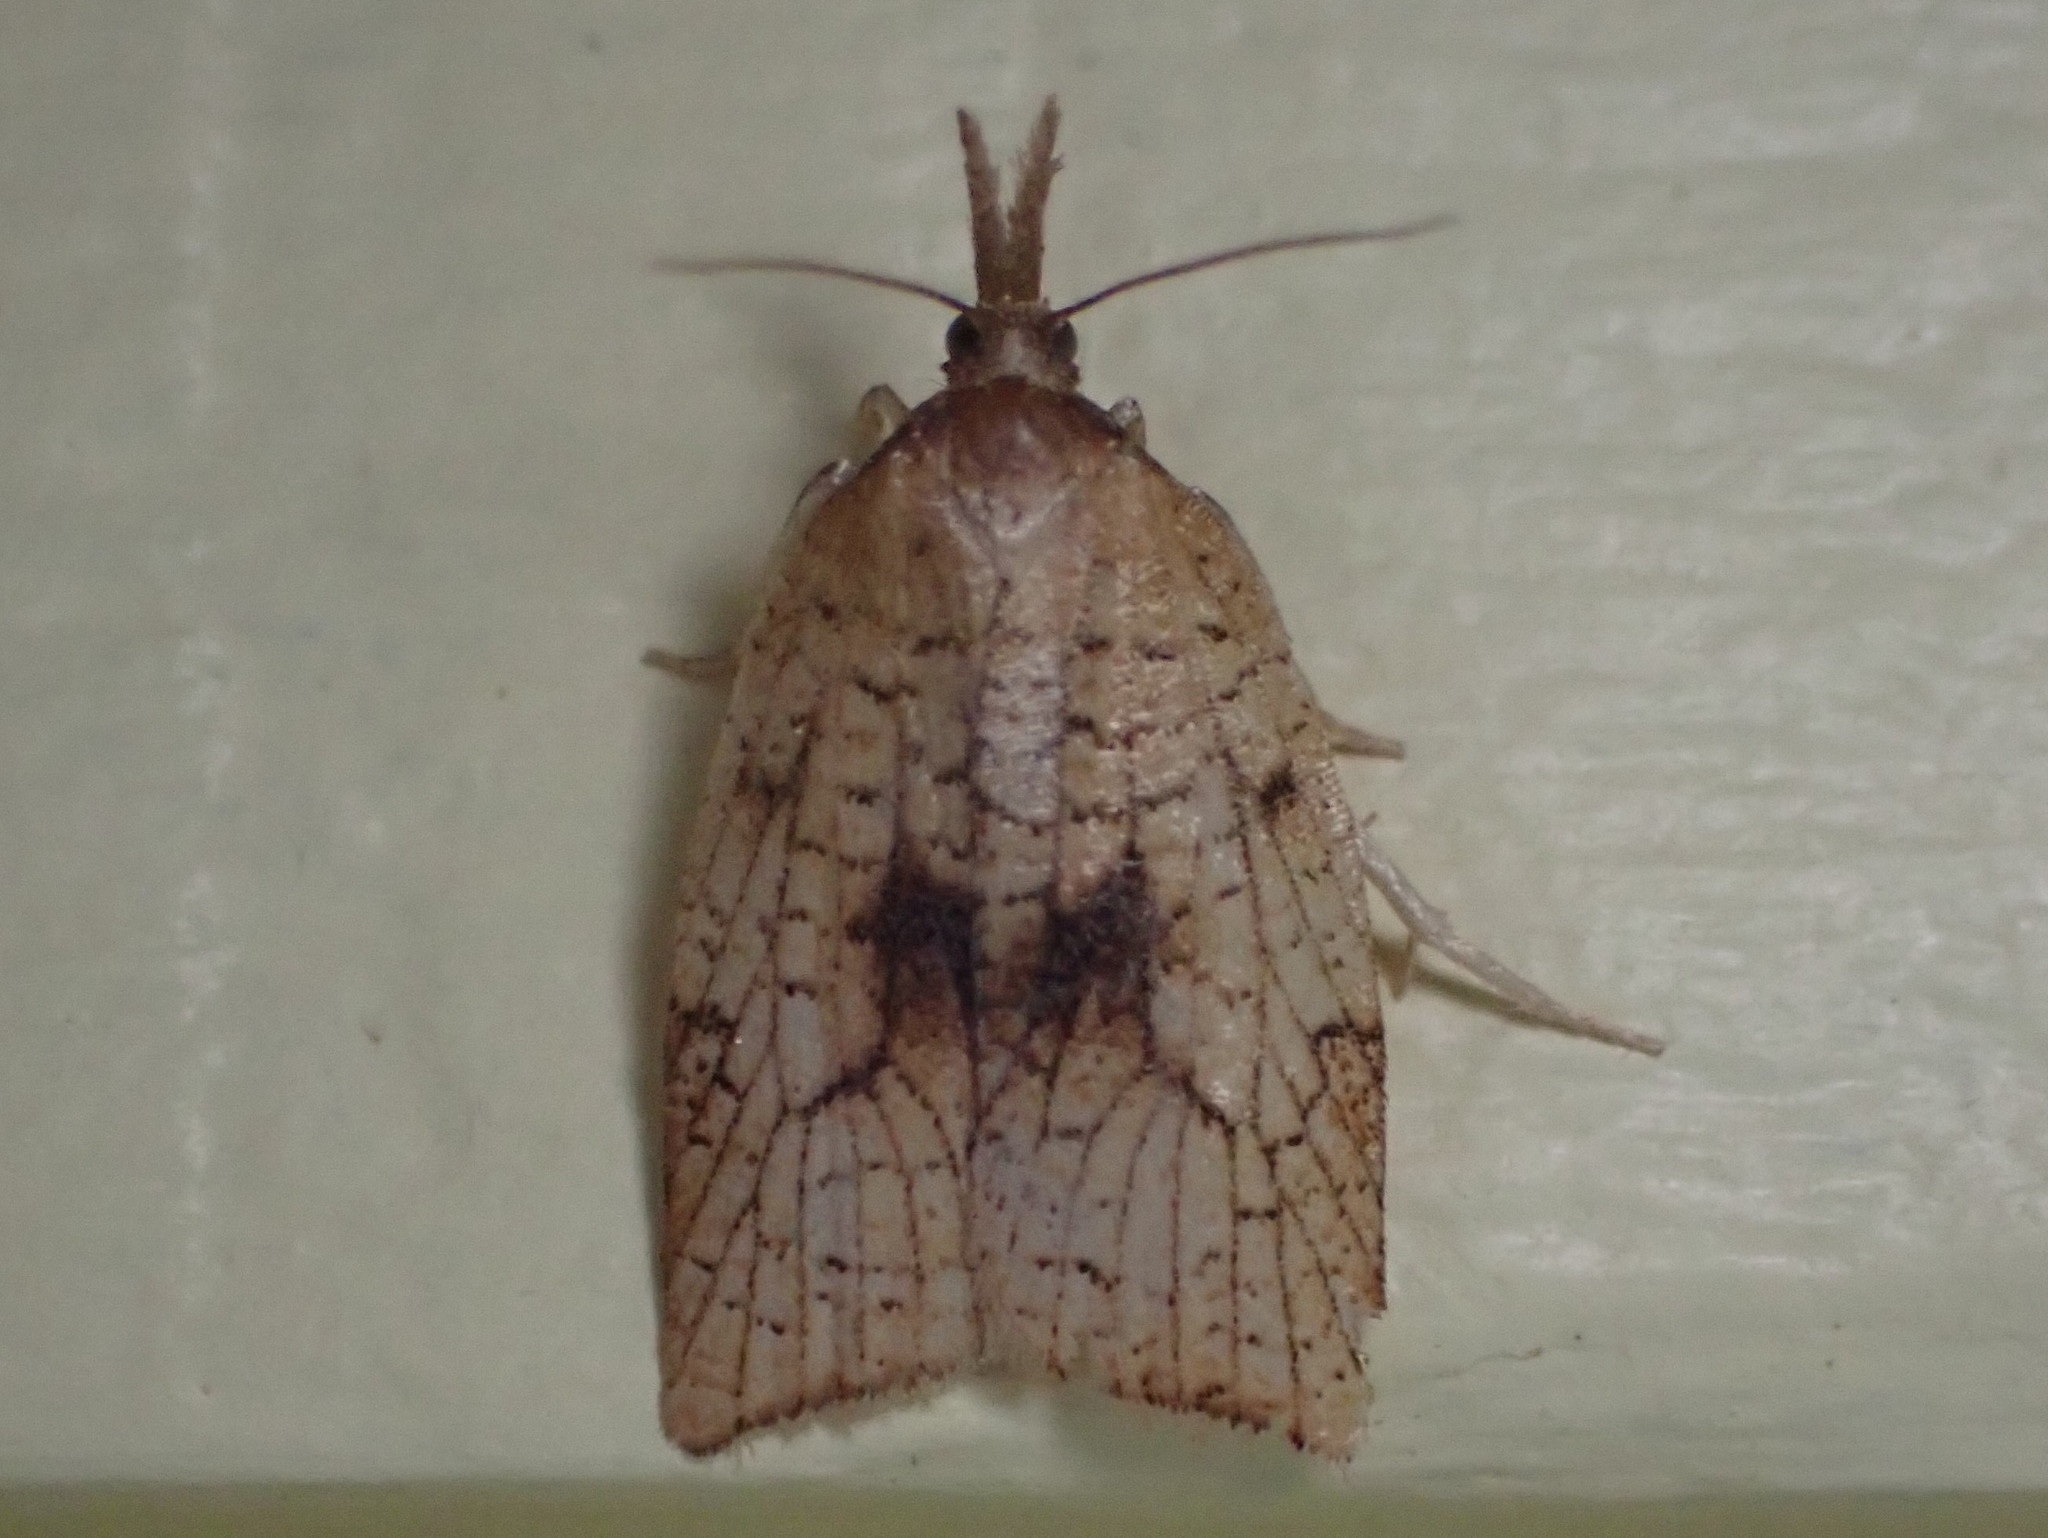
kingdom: Animalia
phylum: Arthropoda
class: Insecta
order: Lepidoptera
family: Tortricidae
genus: Sparganothis
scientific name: Sparganothis xanthoides
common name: Mosaic sparganothis moth
